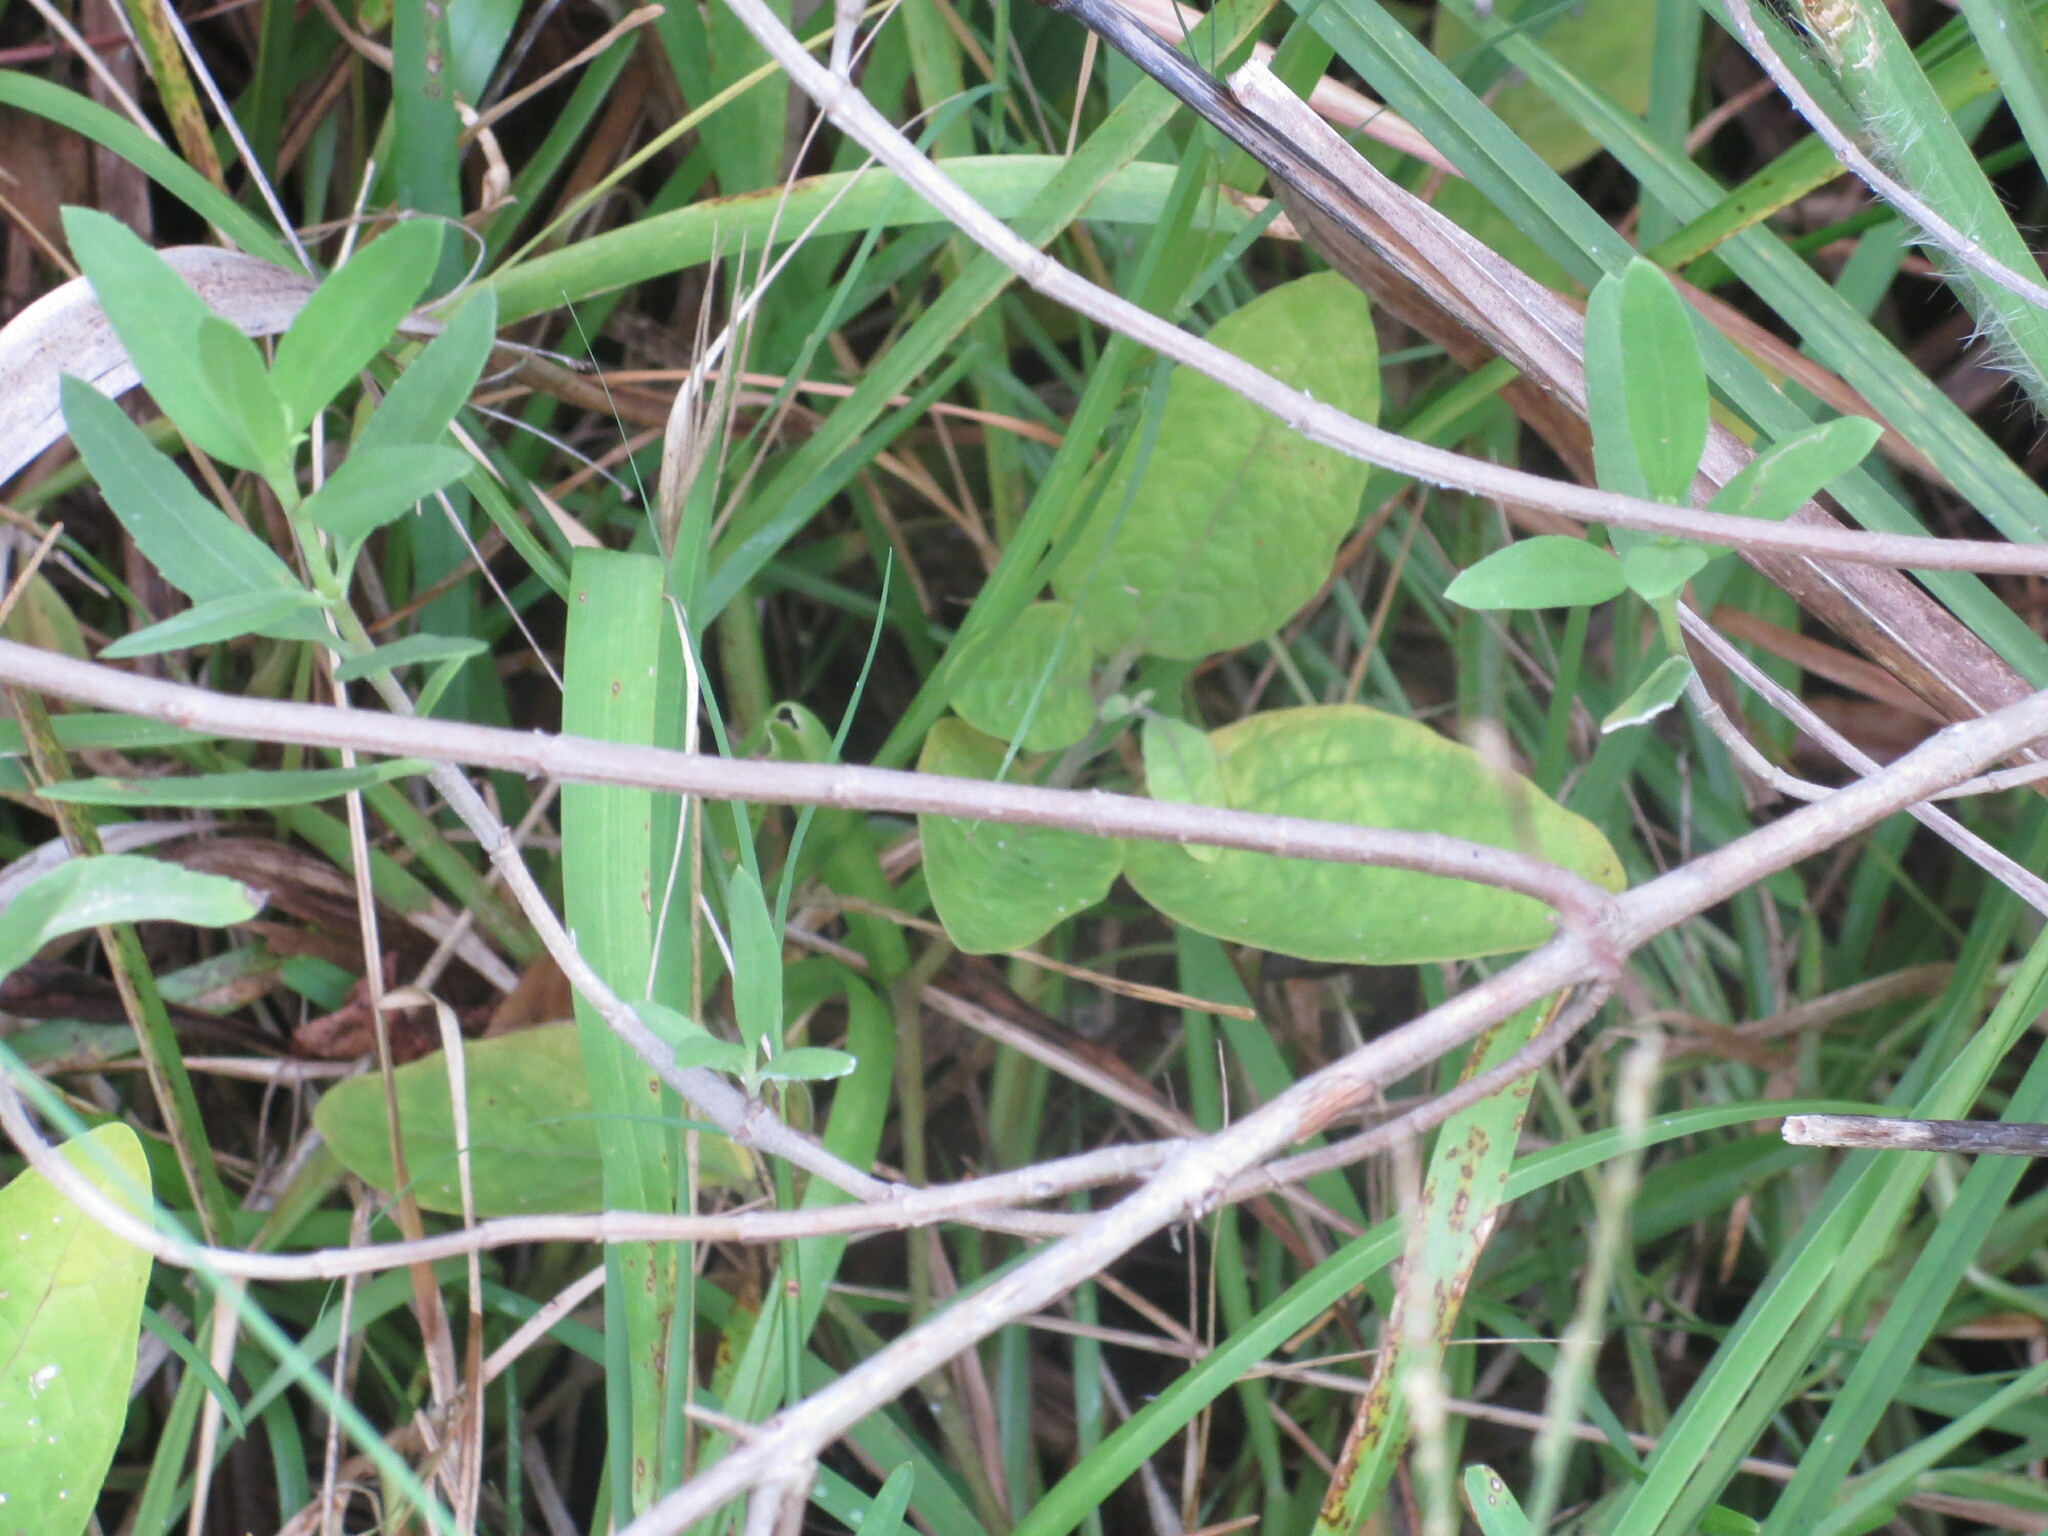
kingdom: Plantae
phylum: Tracheophyta
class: Magnoliopsida
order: Solanales
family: Solanaceae
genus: Physalis
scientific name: Physalis walteri
